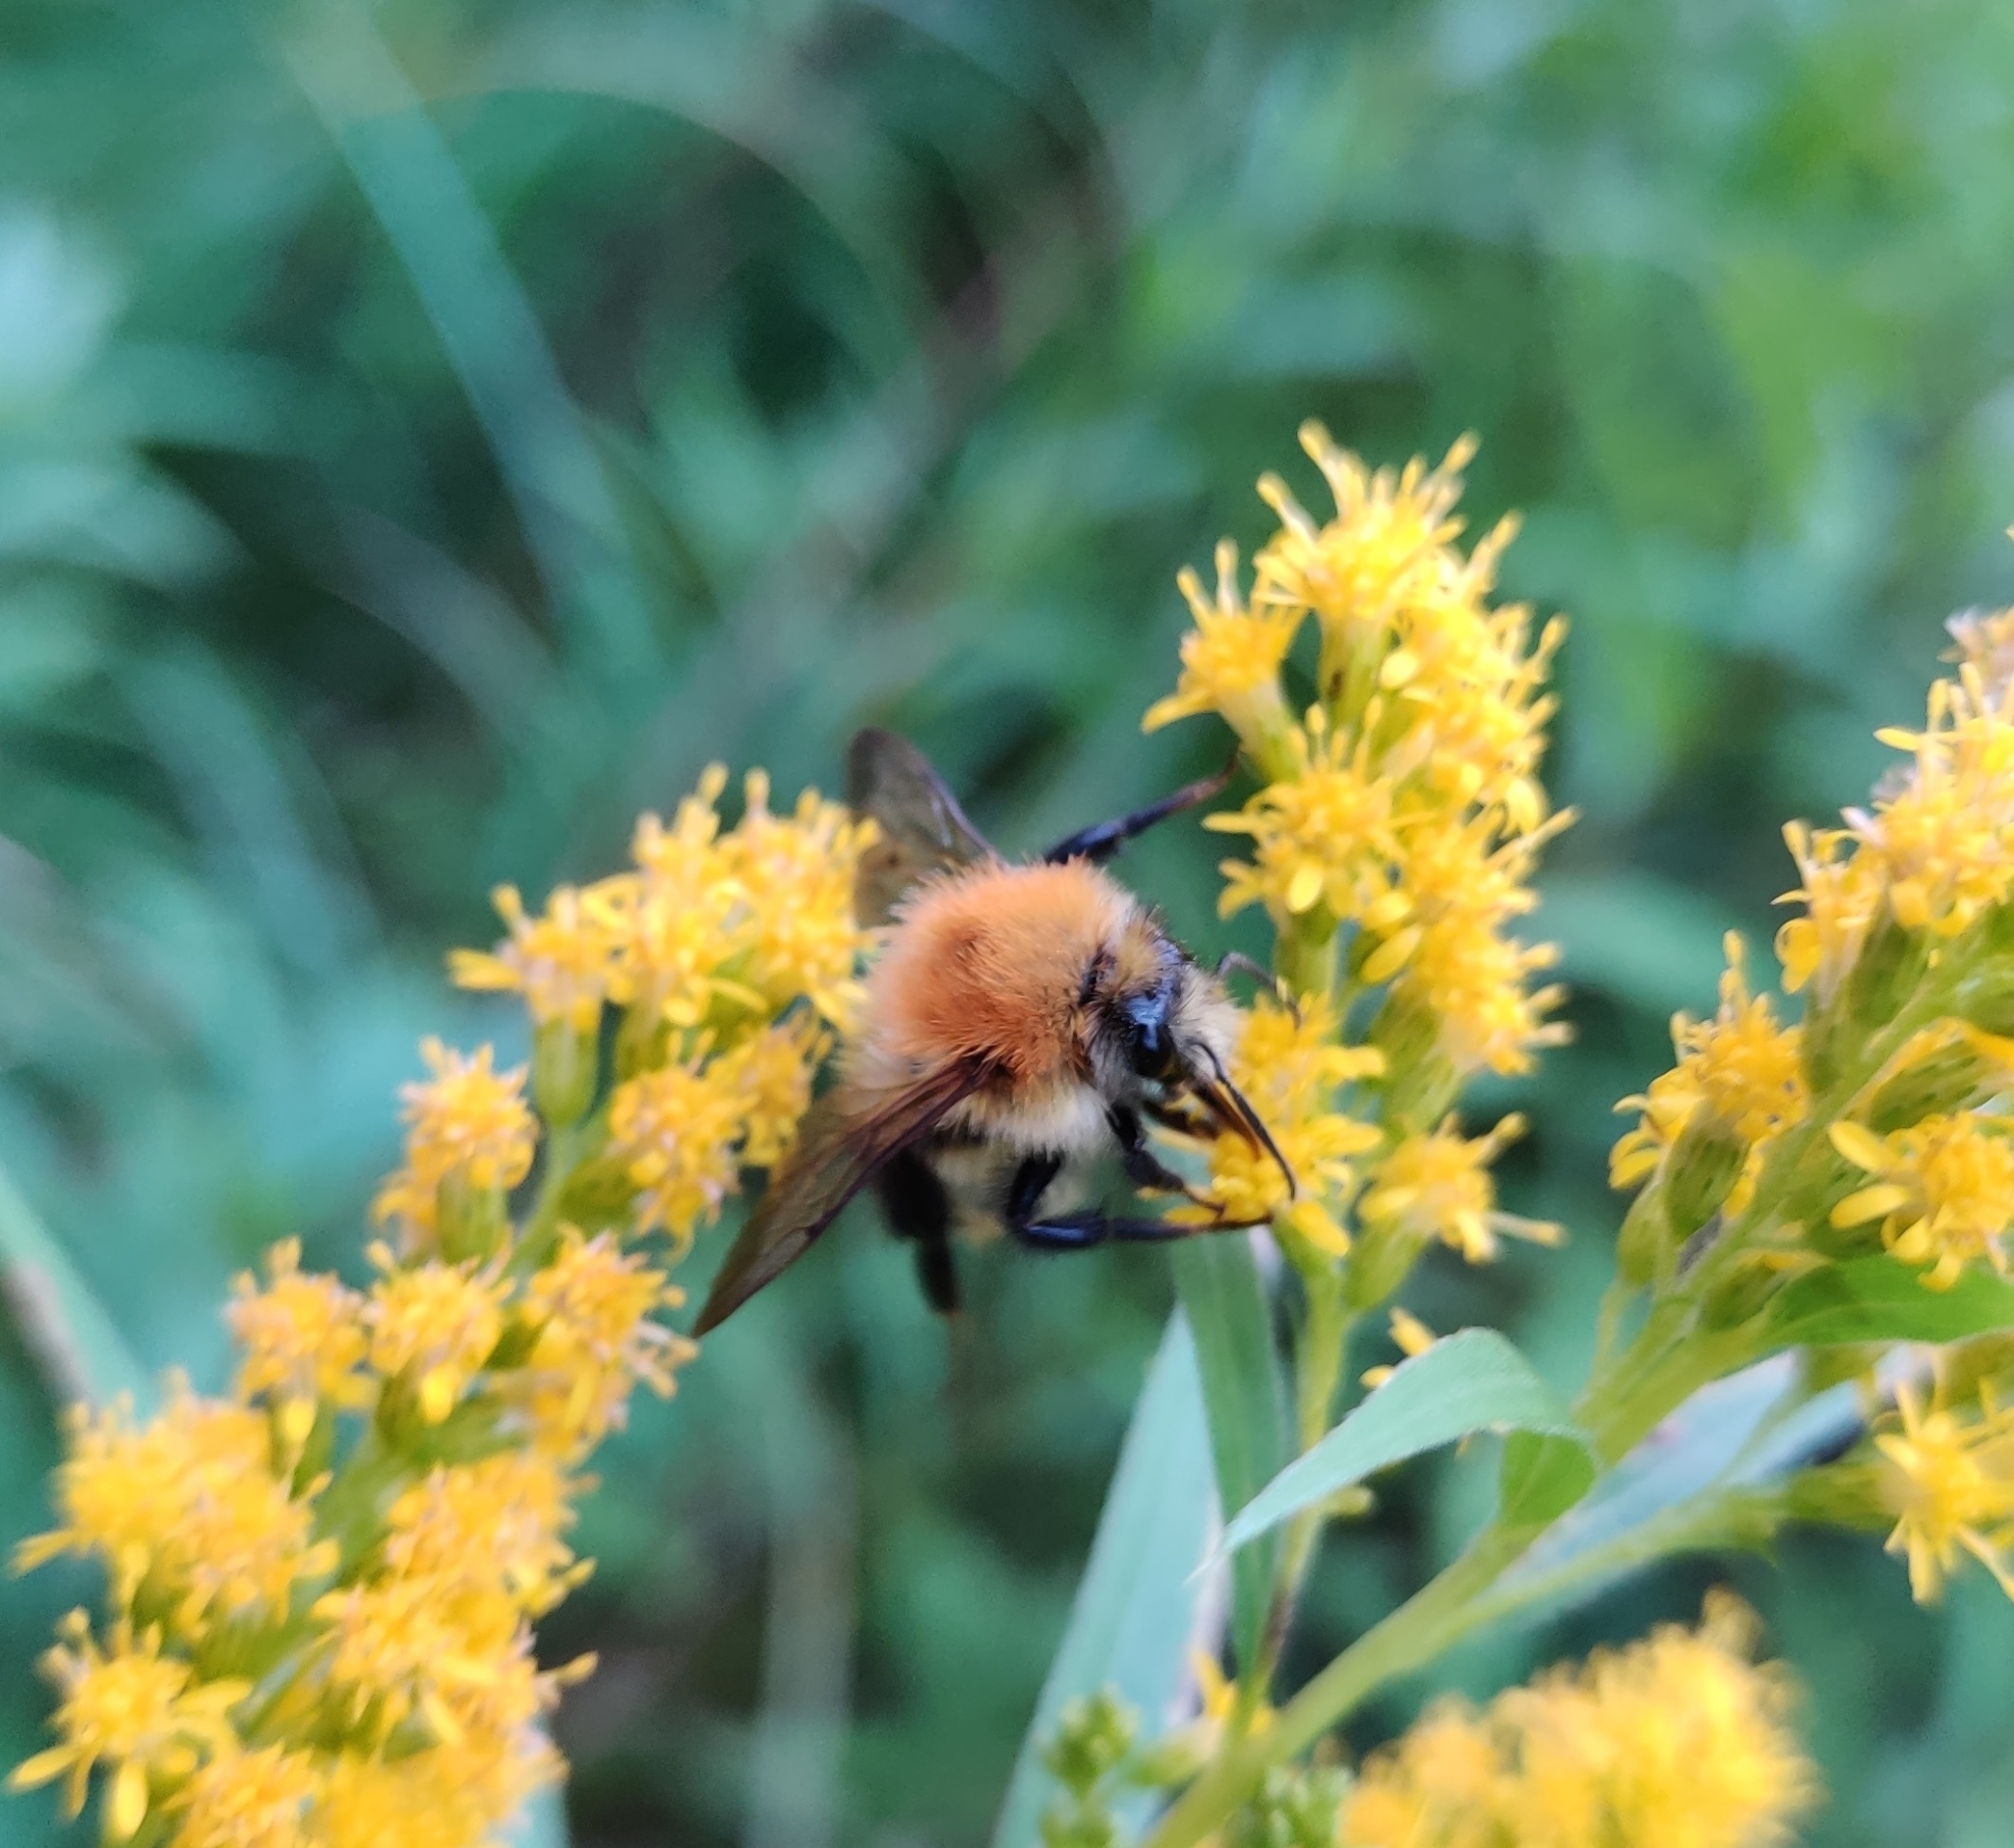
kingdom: Animalia
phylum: Arthropoda
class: Insecta
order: Hymenoptera
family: Apidae
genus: Bombus
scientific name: Bombus pascuorum
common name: Common carder bee
